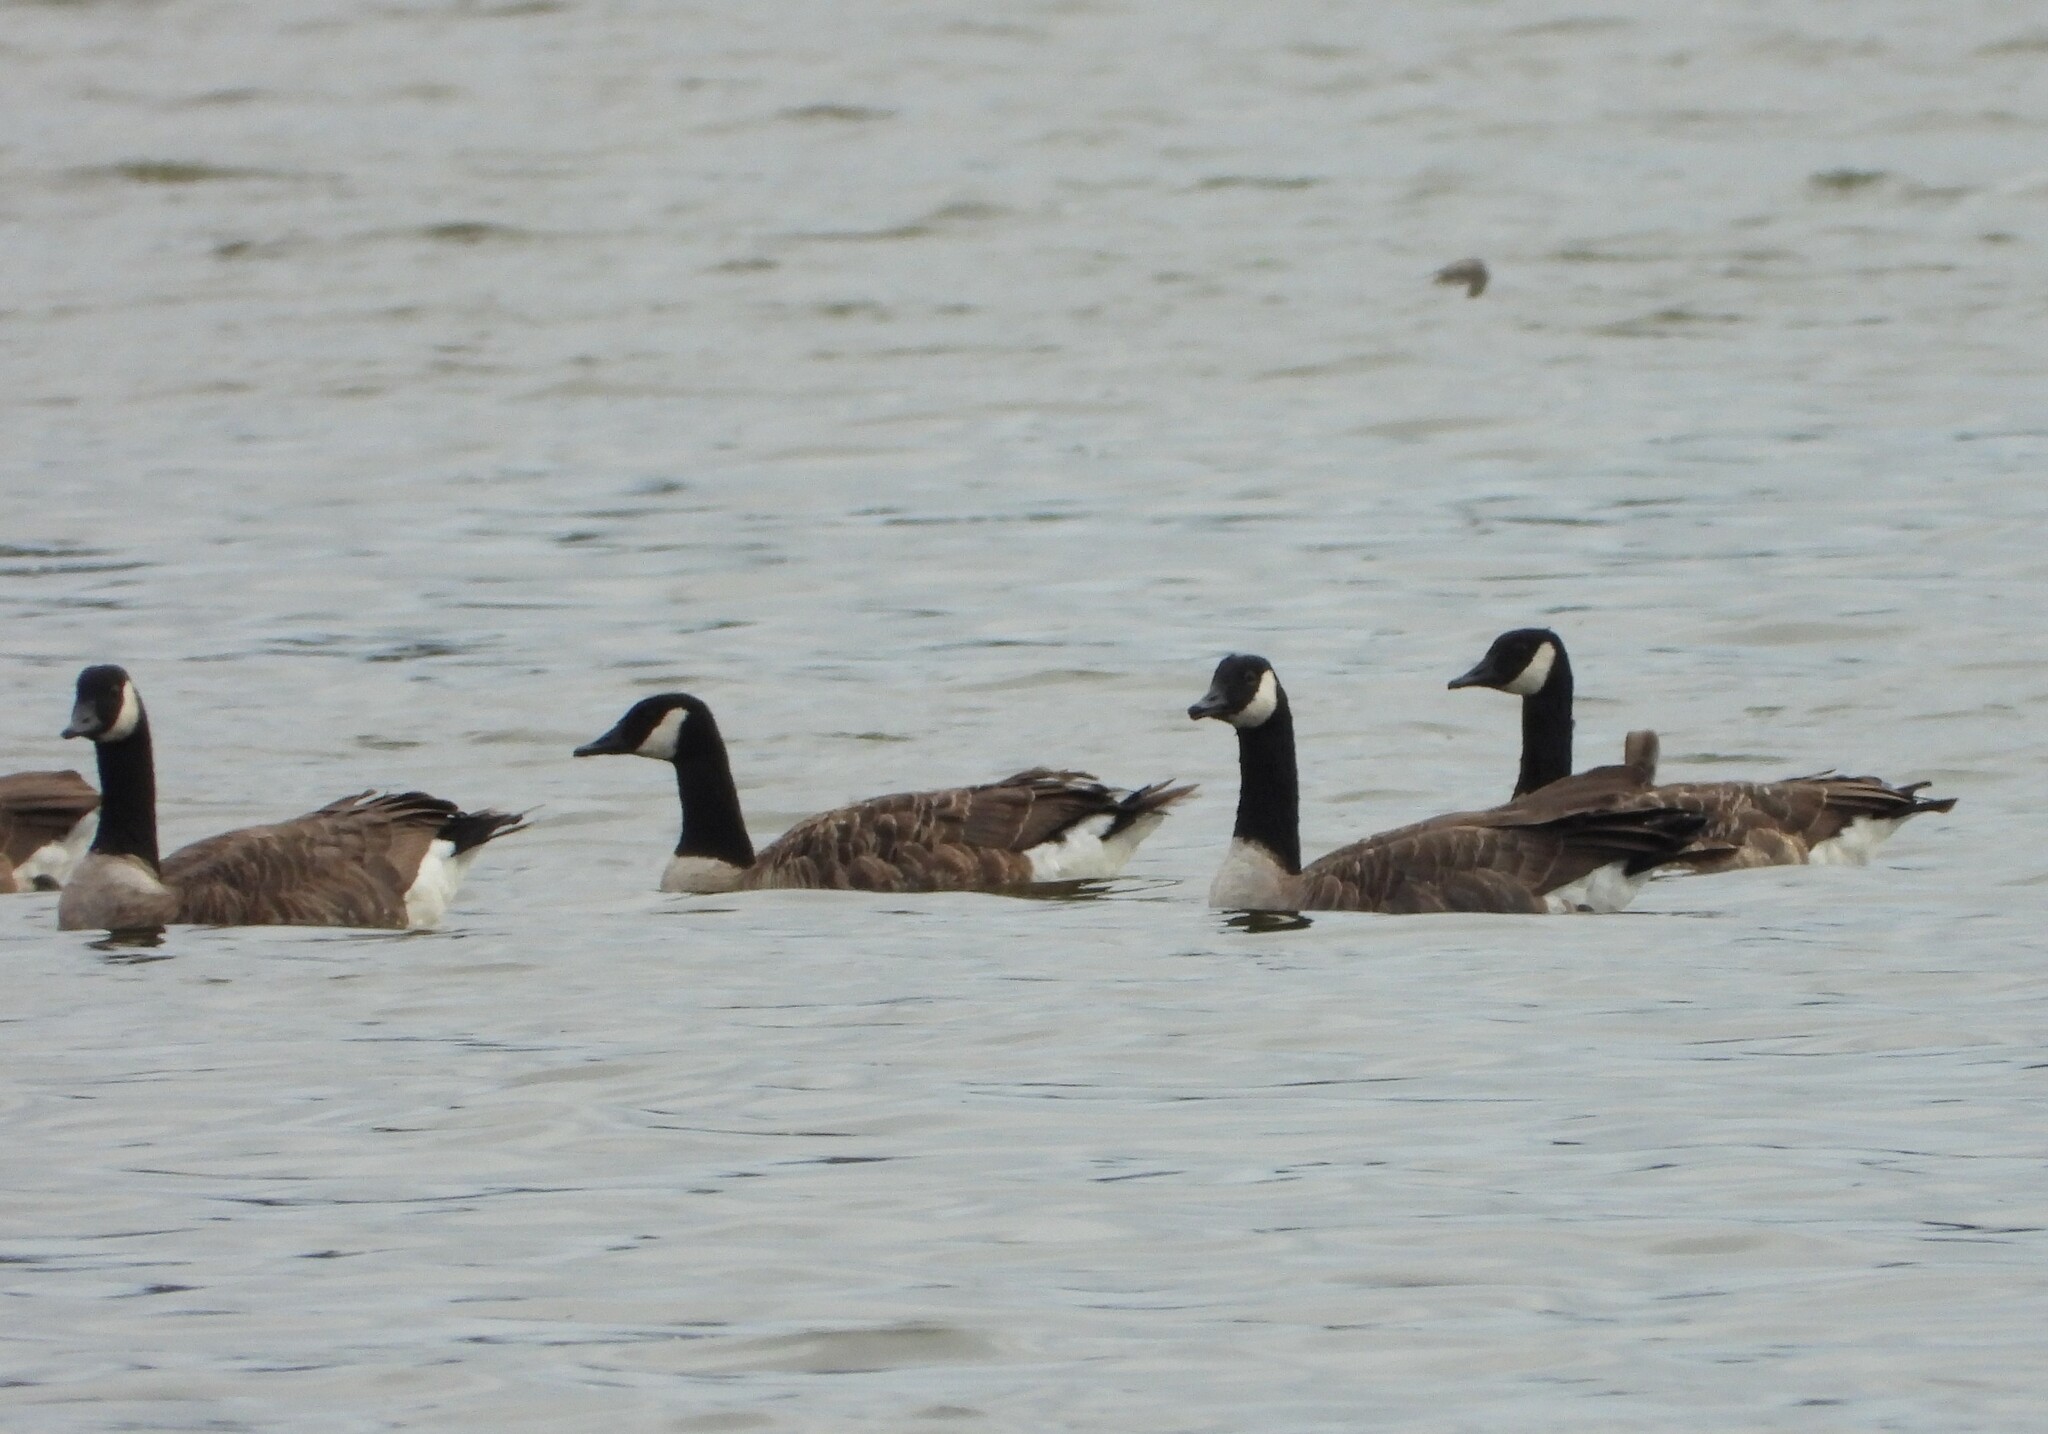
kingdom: Animalia
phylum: Chordata
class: Aves
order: Anseriformes
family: Anatidae
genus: Branta
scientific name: Branta canadensis
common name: Canada goose
